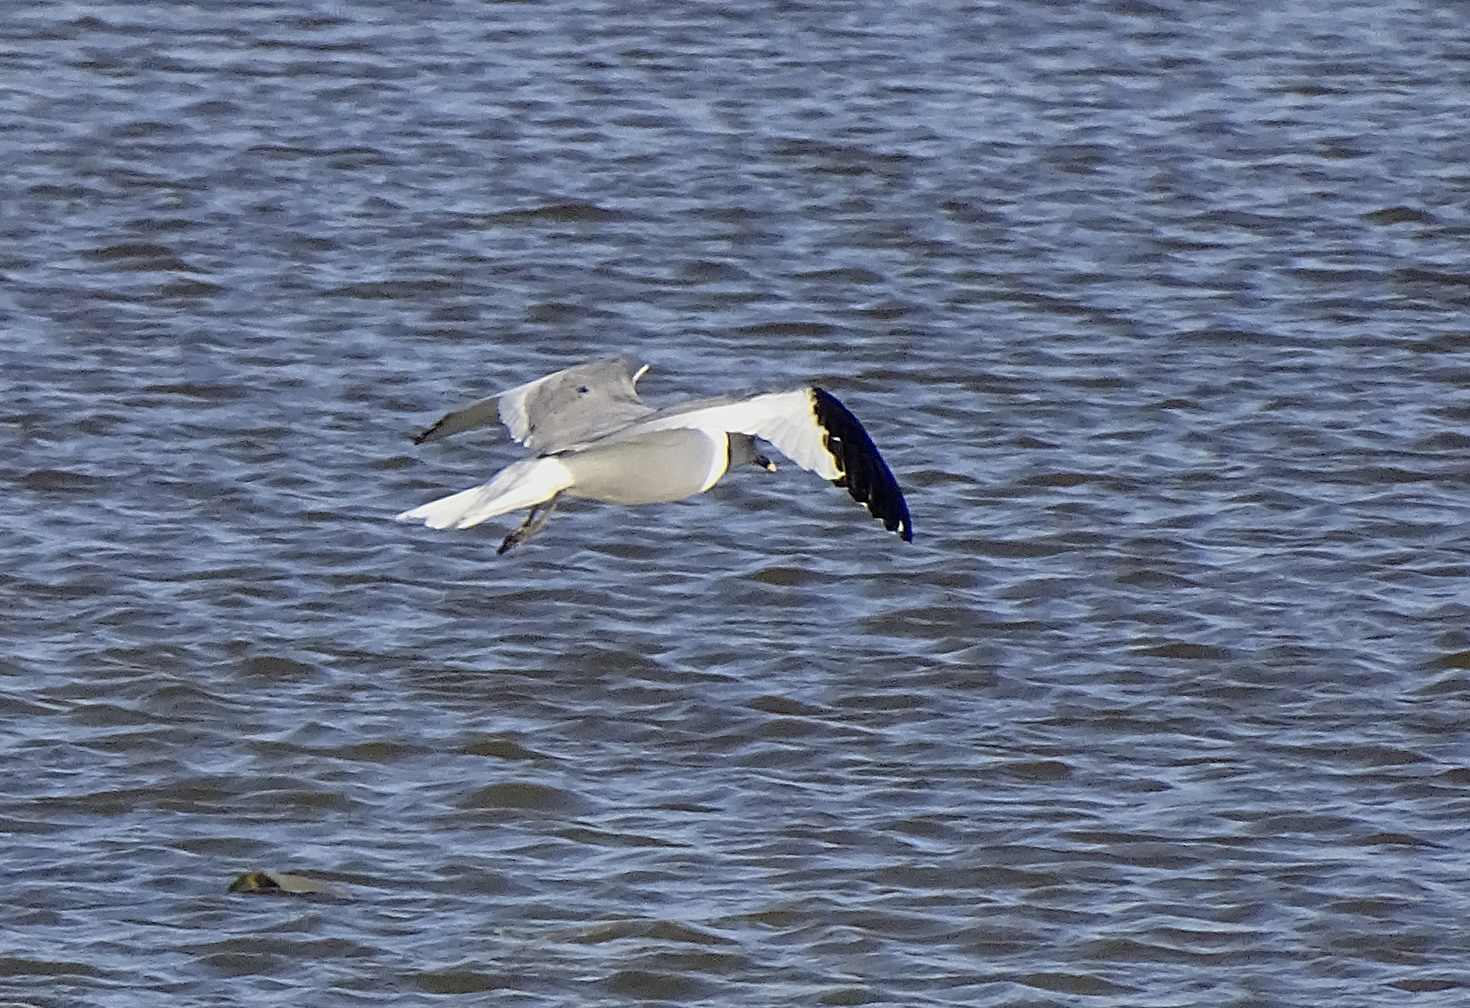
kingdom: Animalia
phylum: Chordata
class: Aves
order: Charadriiformes
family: Laridae
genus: Xema
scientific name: Xema sabini
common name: Sabine's gull
